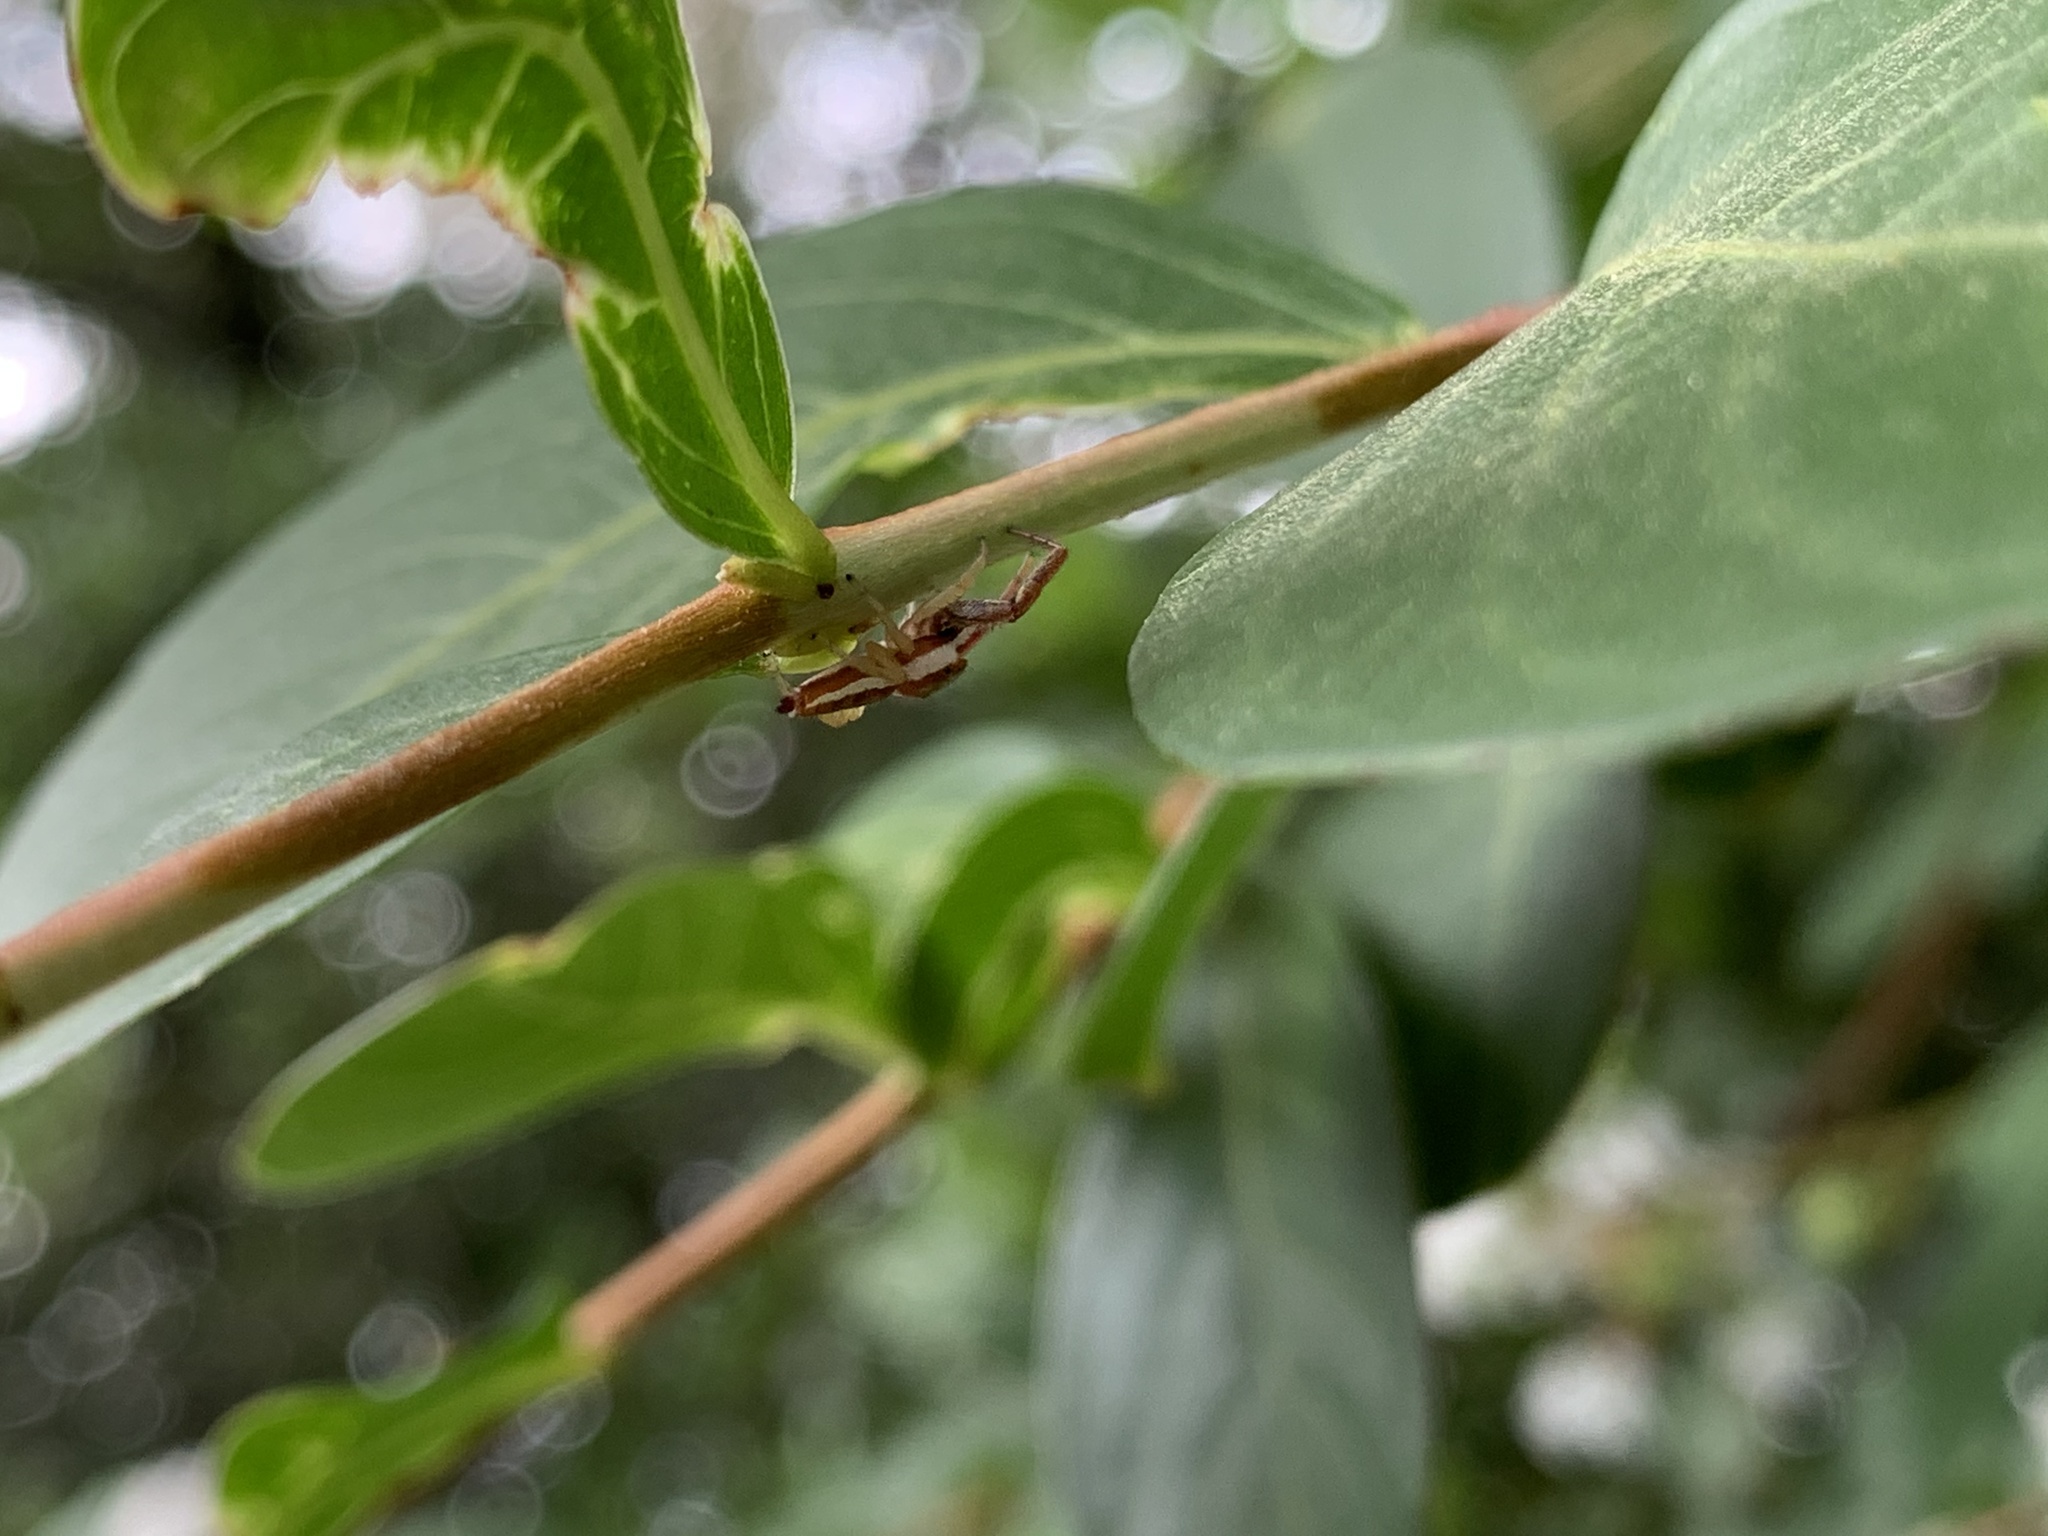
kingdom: Animalia
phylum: Arthropoda
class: Arachnida
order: Araneae
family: Salticidae
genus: Hentzia
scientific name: Hentzia palmarum
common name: Common hentz jumping spider
